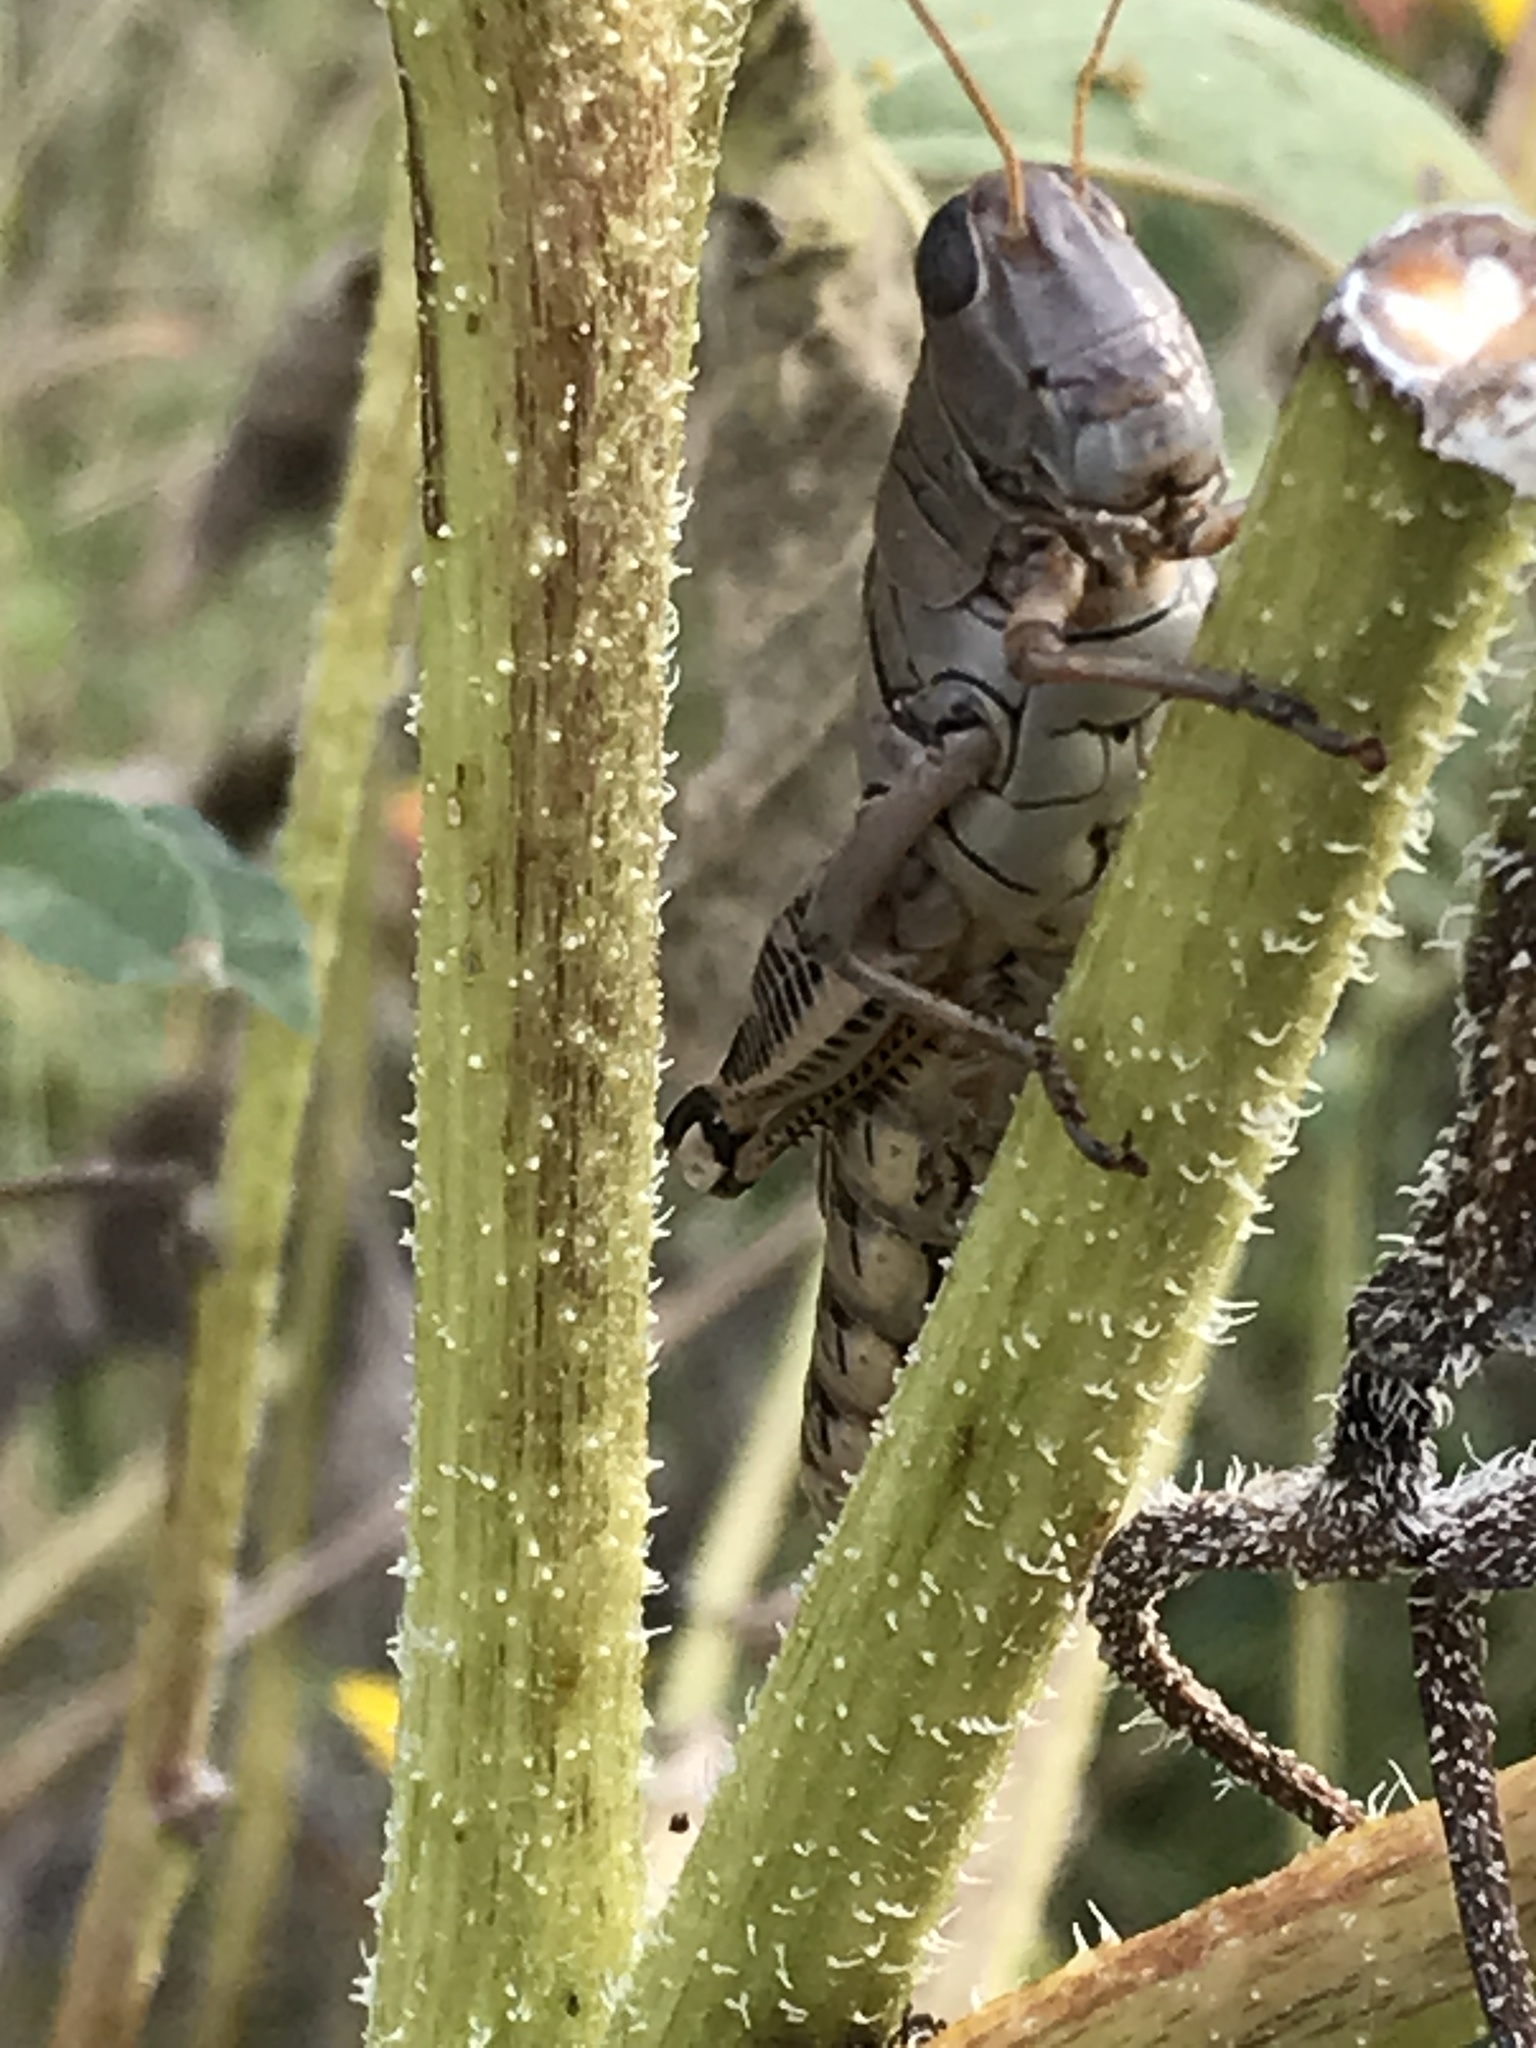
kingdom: Animalia
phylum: Arthropoda
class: Insecta
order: Orthoptera
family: Acrididae
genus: Melanoplus
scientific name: Melanoplus differentialis
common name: Differential grasshopper
